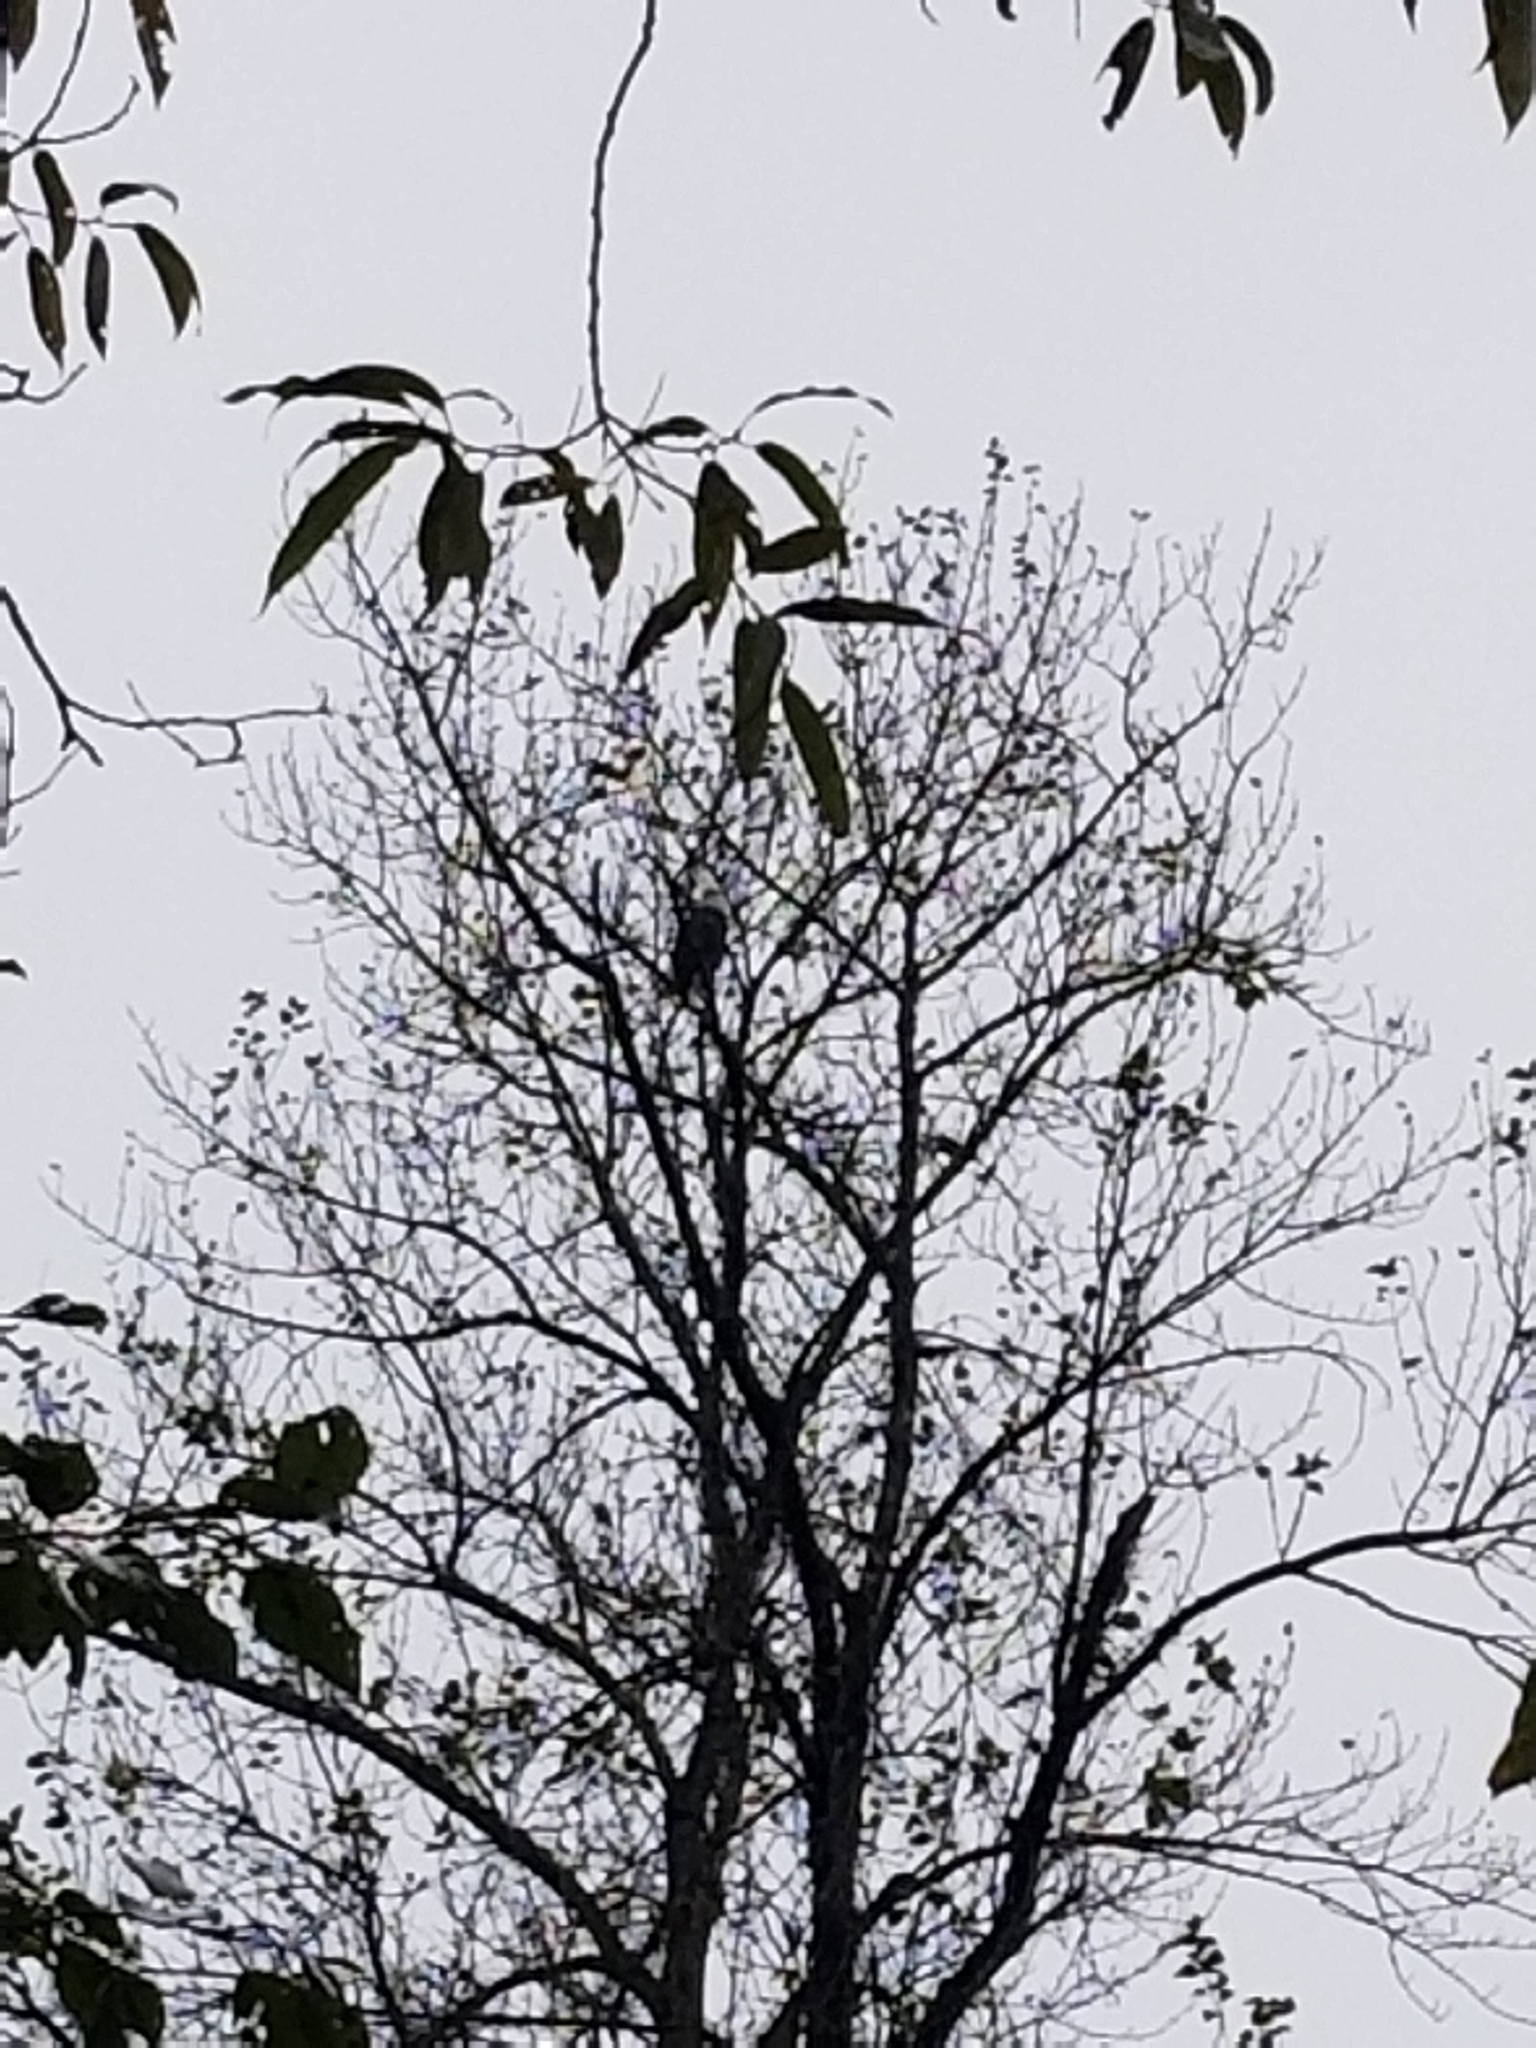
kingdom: Animalia
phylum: Chordata
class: Aves
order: Accipitriformes
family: Accipitridae
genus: Haliaeetus
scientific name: Haliaeetus leucocephalus
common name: Bald eagle
